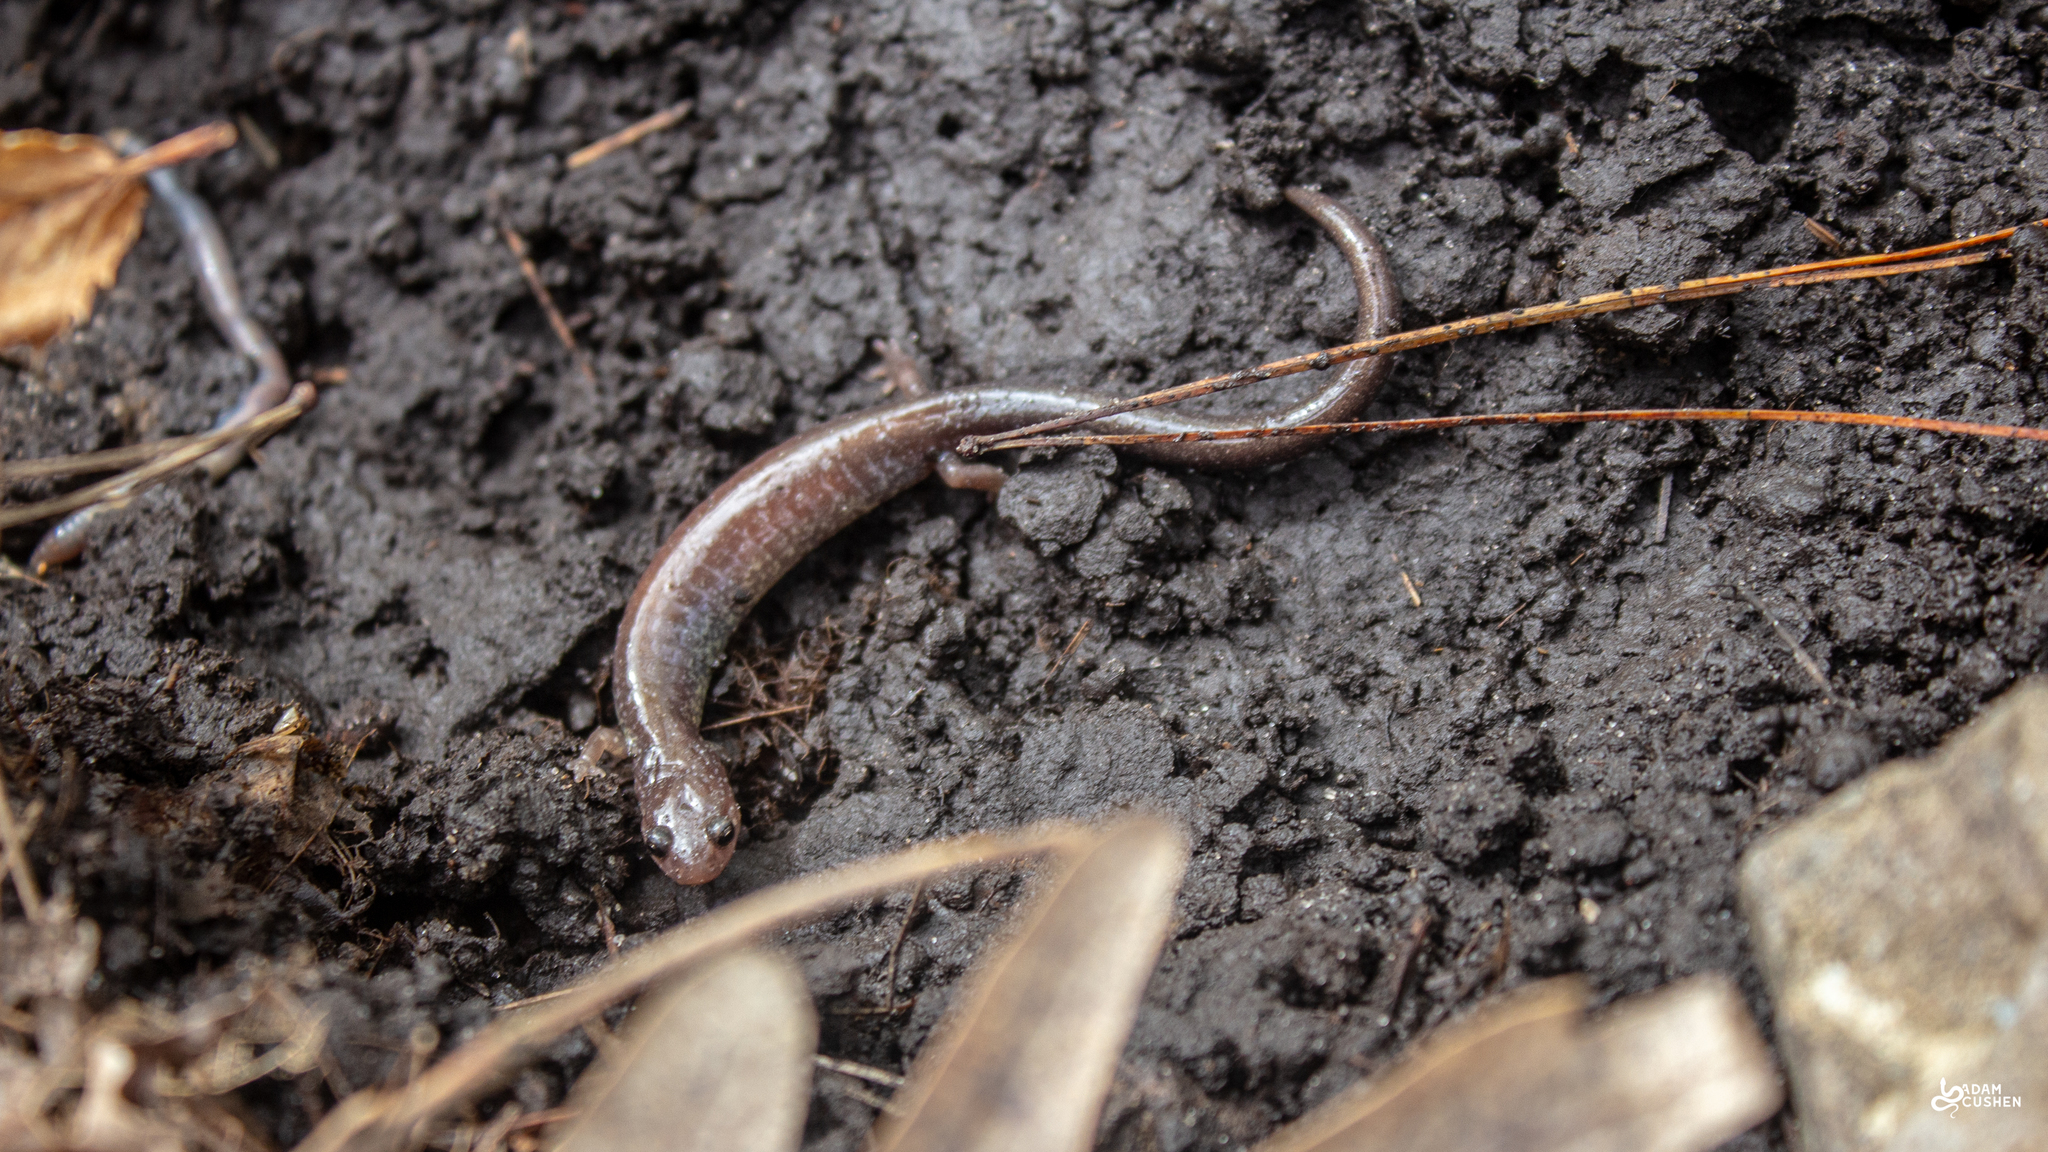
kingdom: Animalia
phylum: Chordata
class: Amphibia
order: Caudata
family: Plethodontidae
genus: Plethodon
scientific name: Plethodon cinereus
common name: Redback salamander
